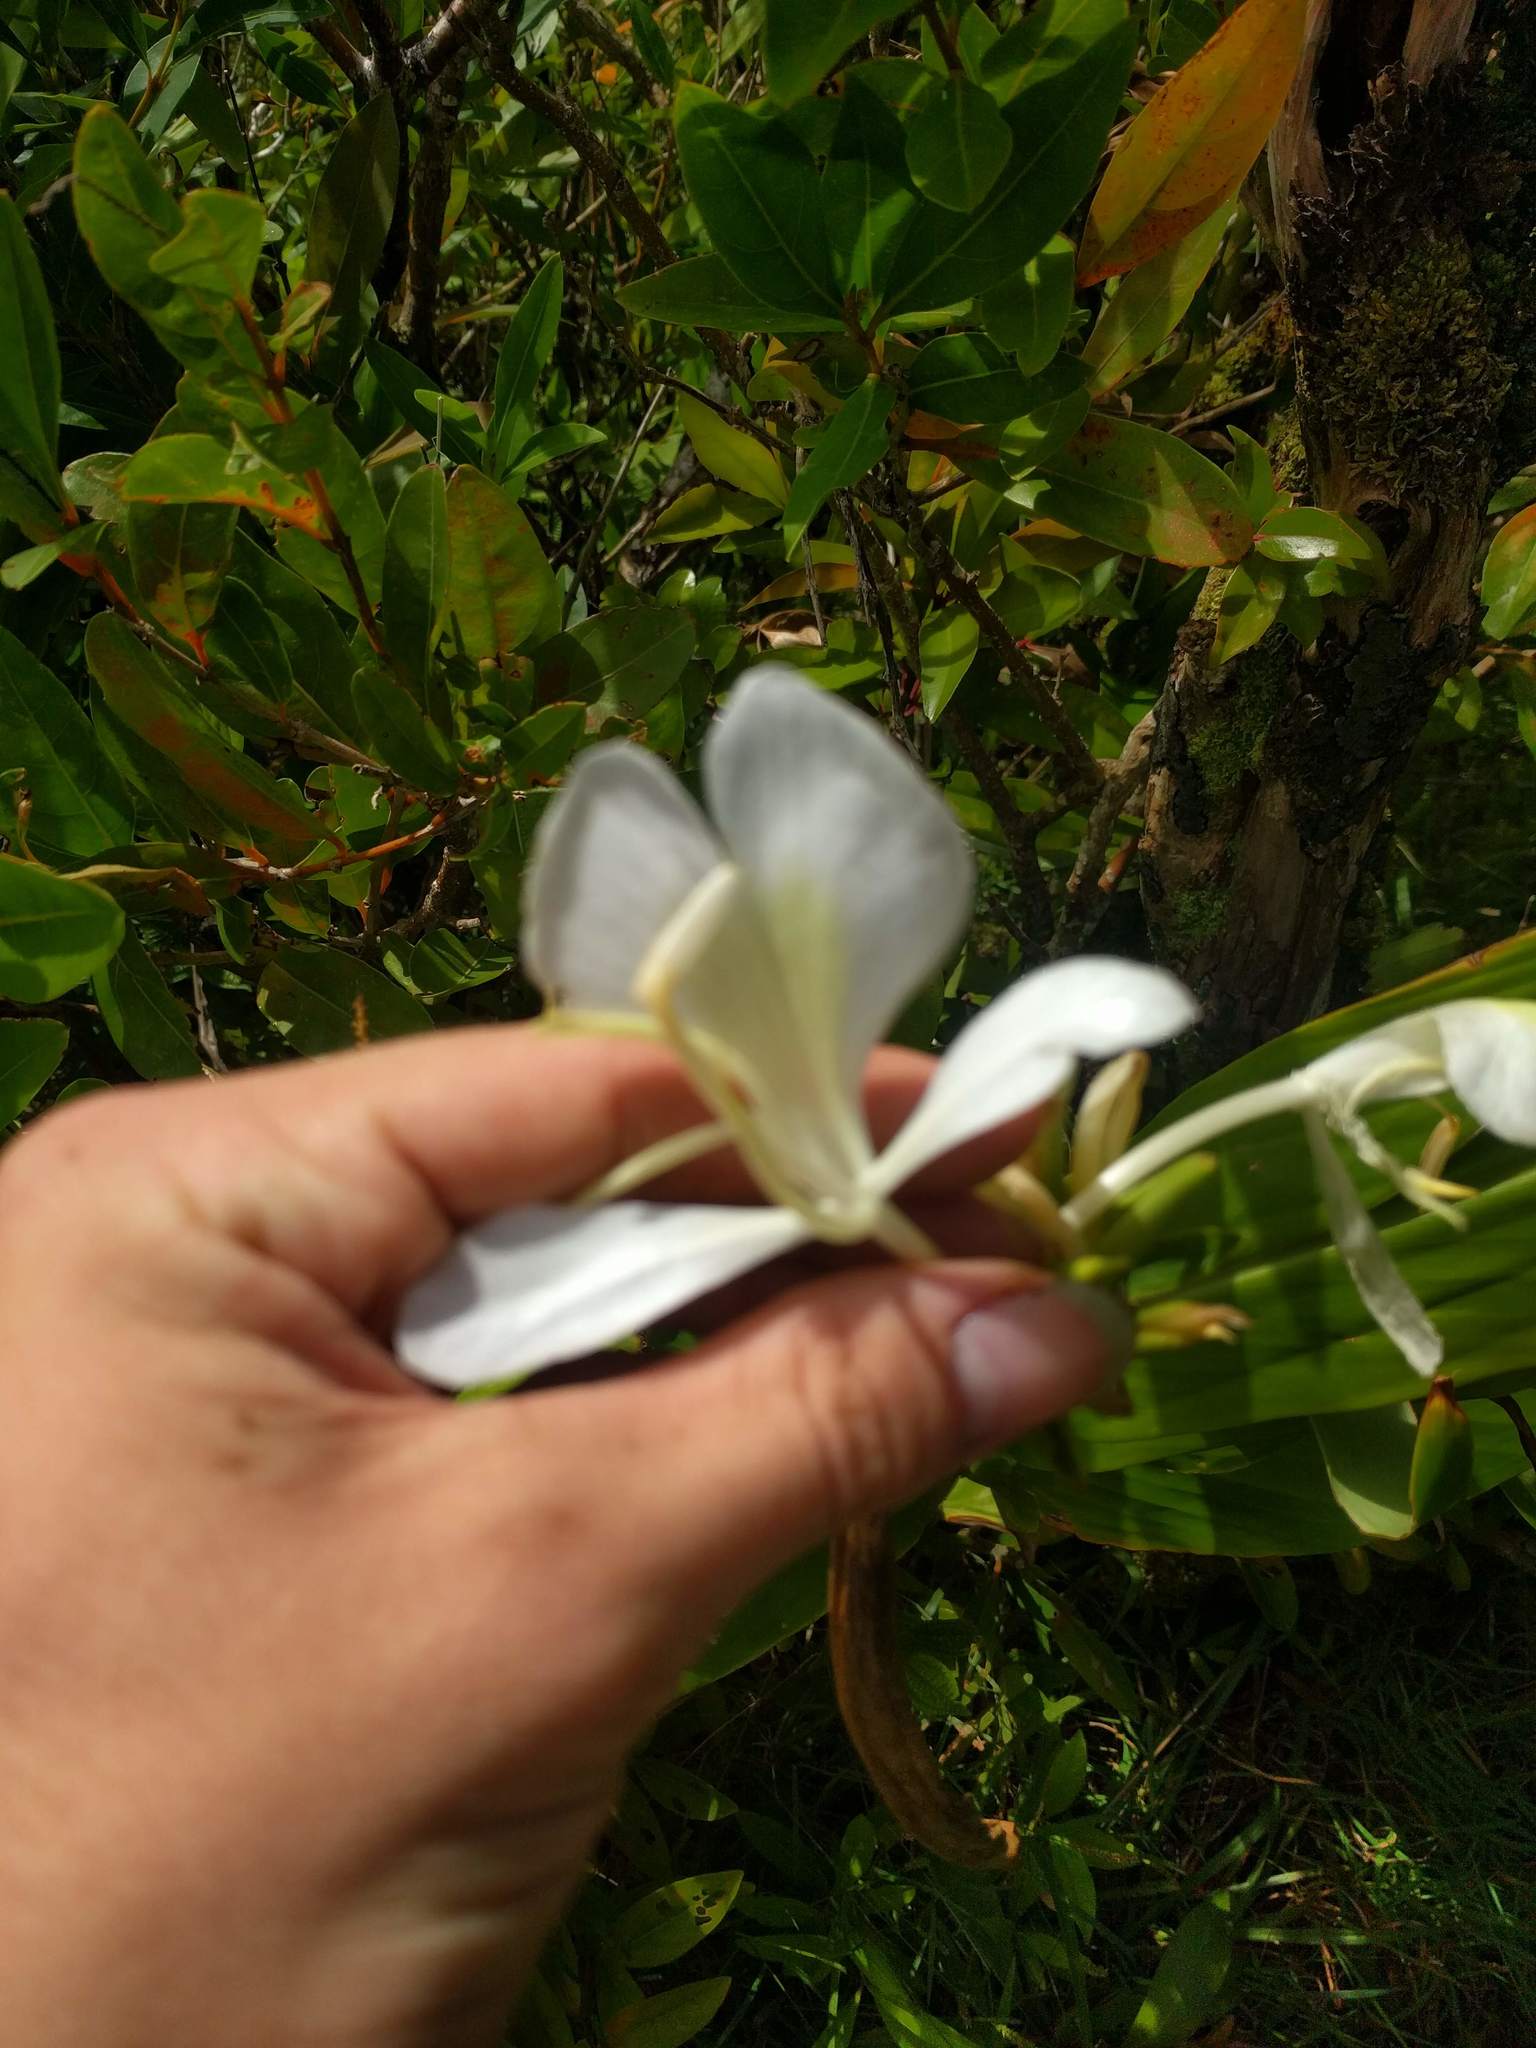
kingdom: Plantae
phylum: Tracheophyta
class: Liliopsida
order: Zingiberales
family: Zingiberaceae
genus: Hedychium
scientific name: Hedychium coronarium
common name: White garland-lily
